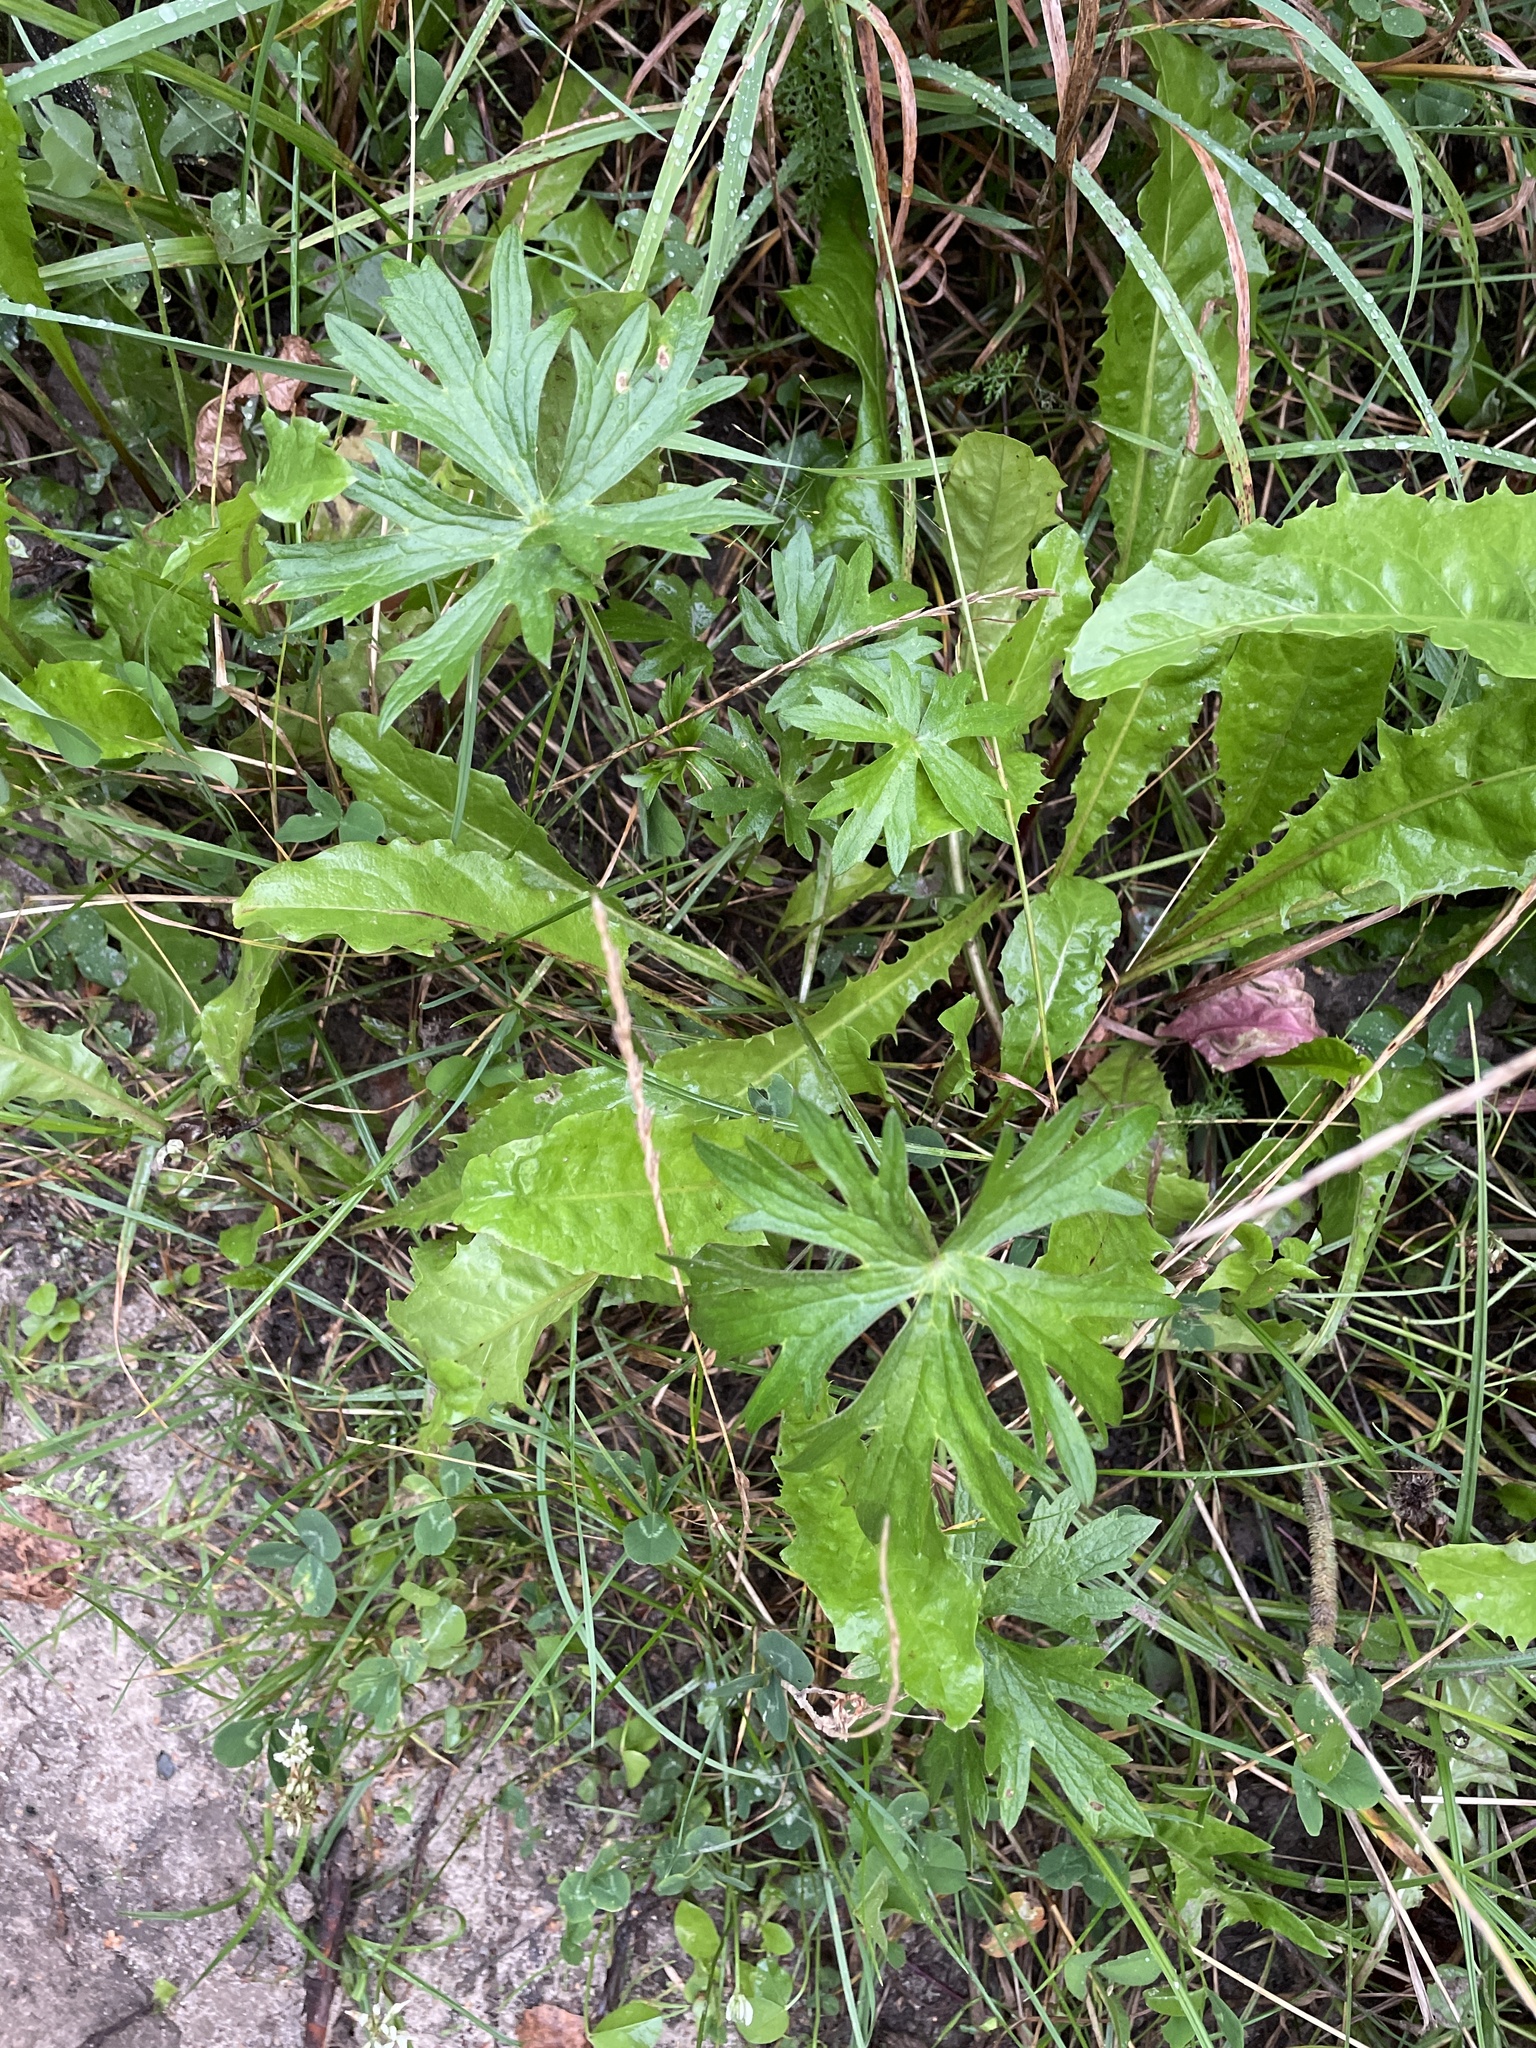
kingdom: Plantae
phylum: Tracheophyta
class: Magnoliopsida
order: Ranunculales
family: Ranunculaceae
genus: Ranunculus
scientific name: Ranunculus acris
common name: Meadow buttercup
